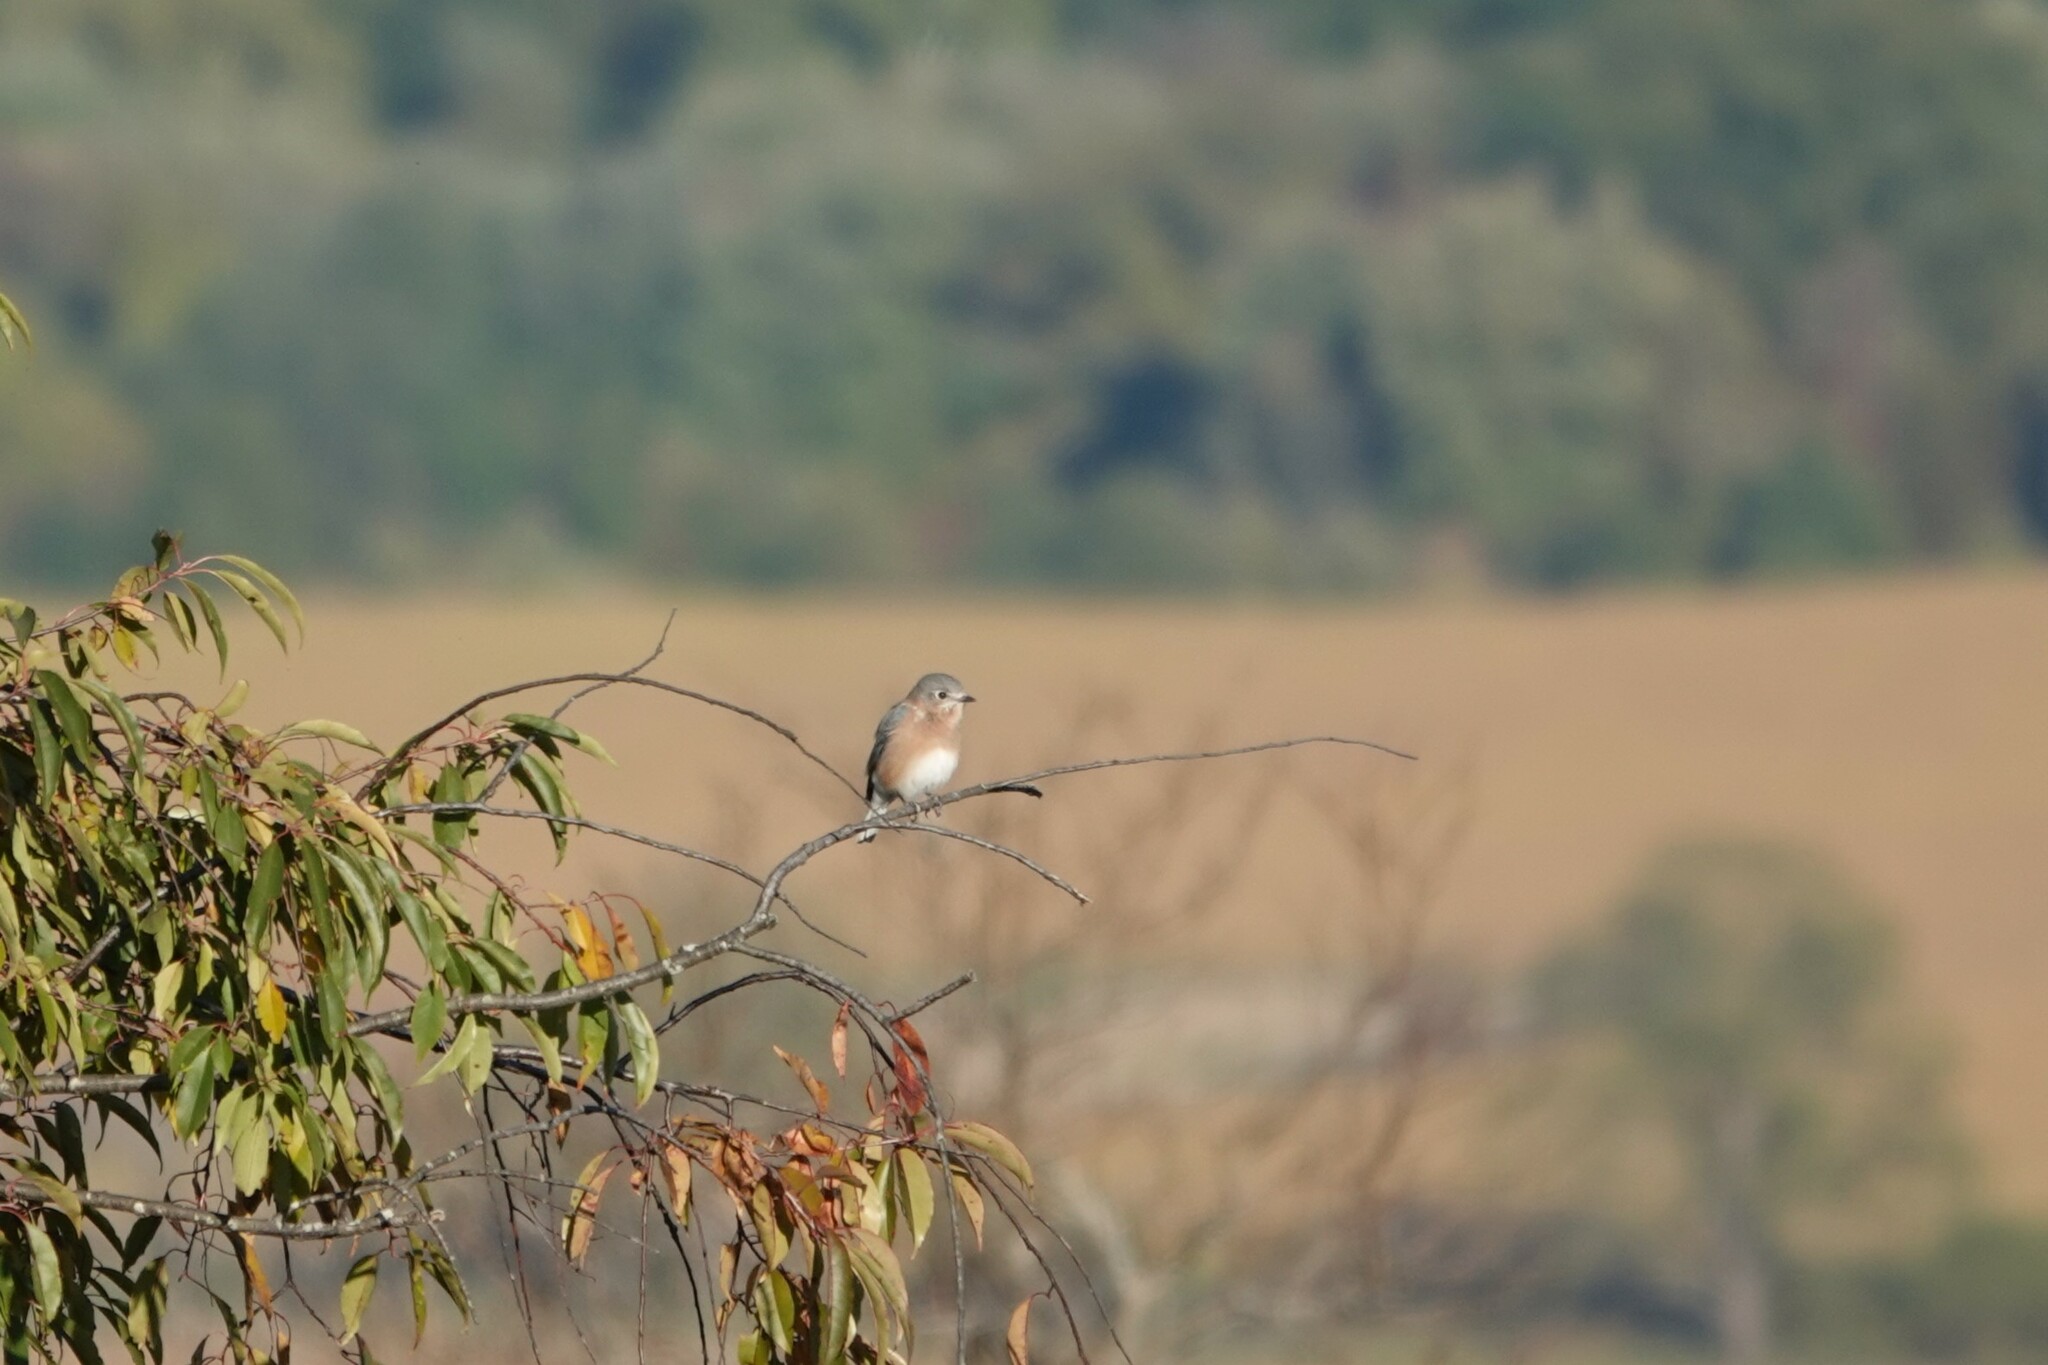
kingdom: Animalia
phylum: Chordata
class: Aves
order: Passeriformes
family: Turdidae
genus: Sialia
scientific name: Sialia sialis
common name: Eastern bluebird
